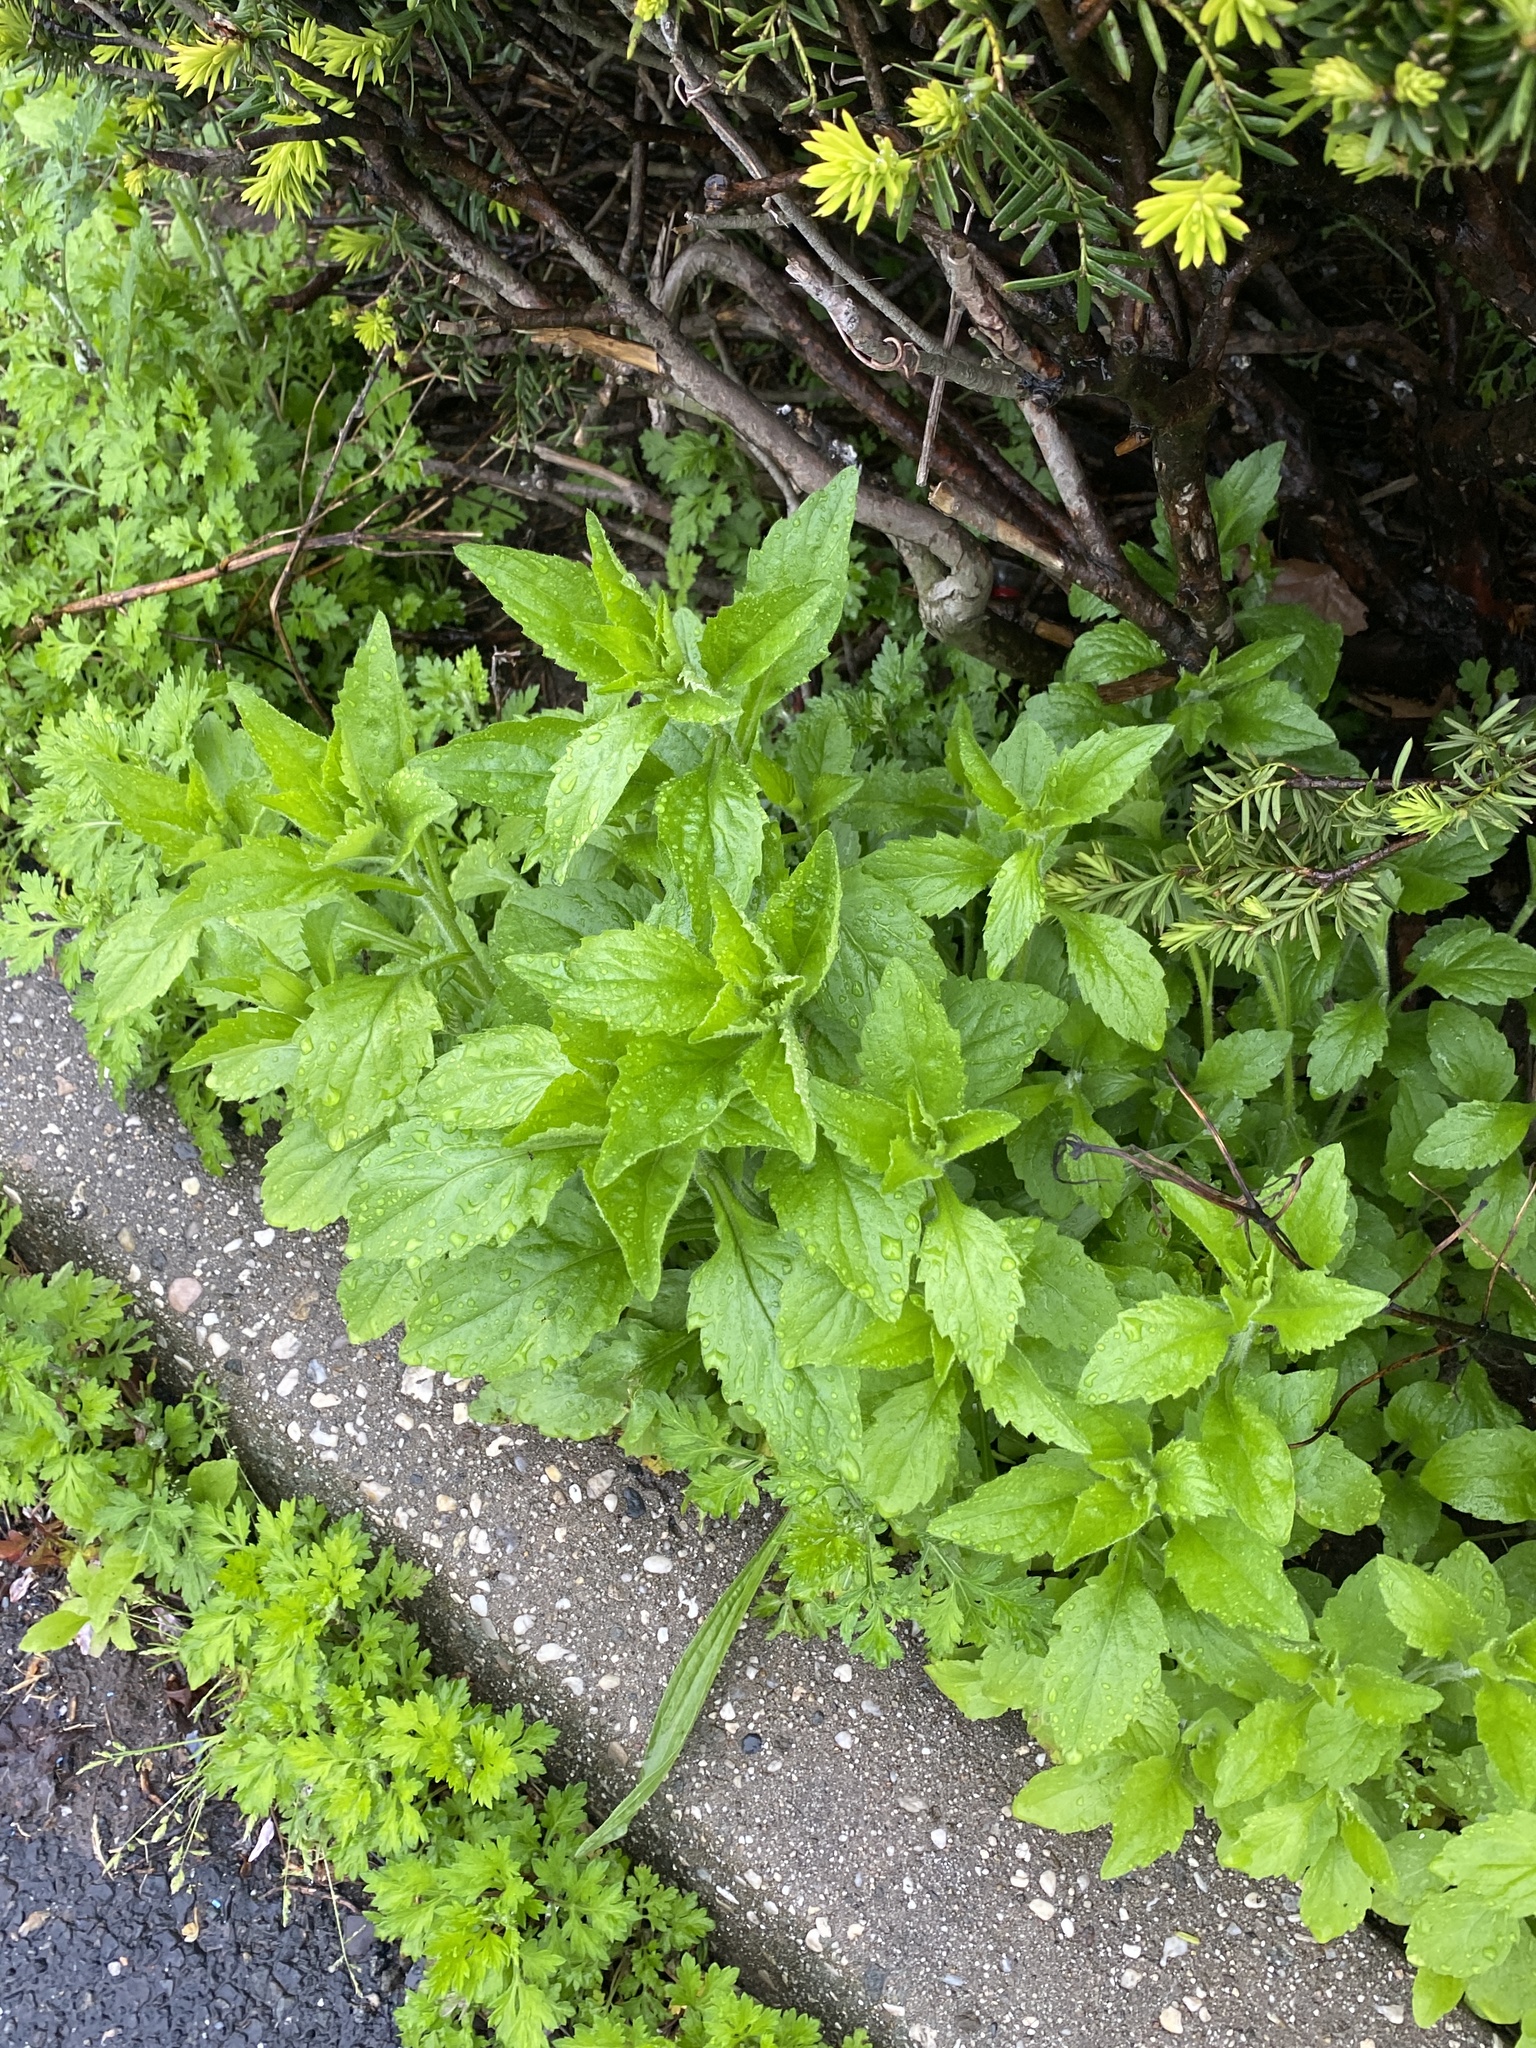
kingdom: Plantae
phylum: Tracheophyta
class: Magnoliopsida
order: Asterales
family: Asteraceae
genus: Erigeron
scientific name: Erigeron annuus
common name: Tall fleabane
